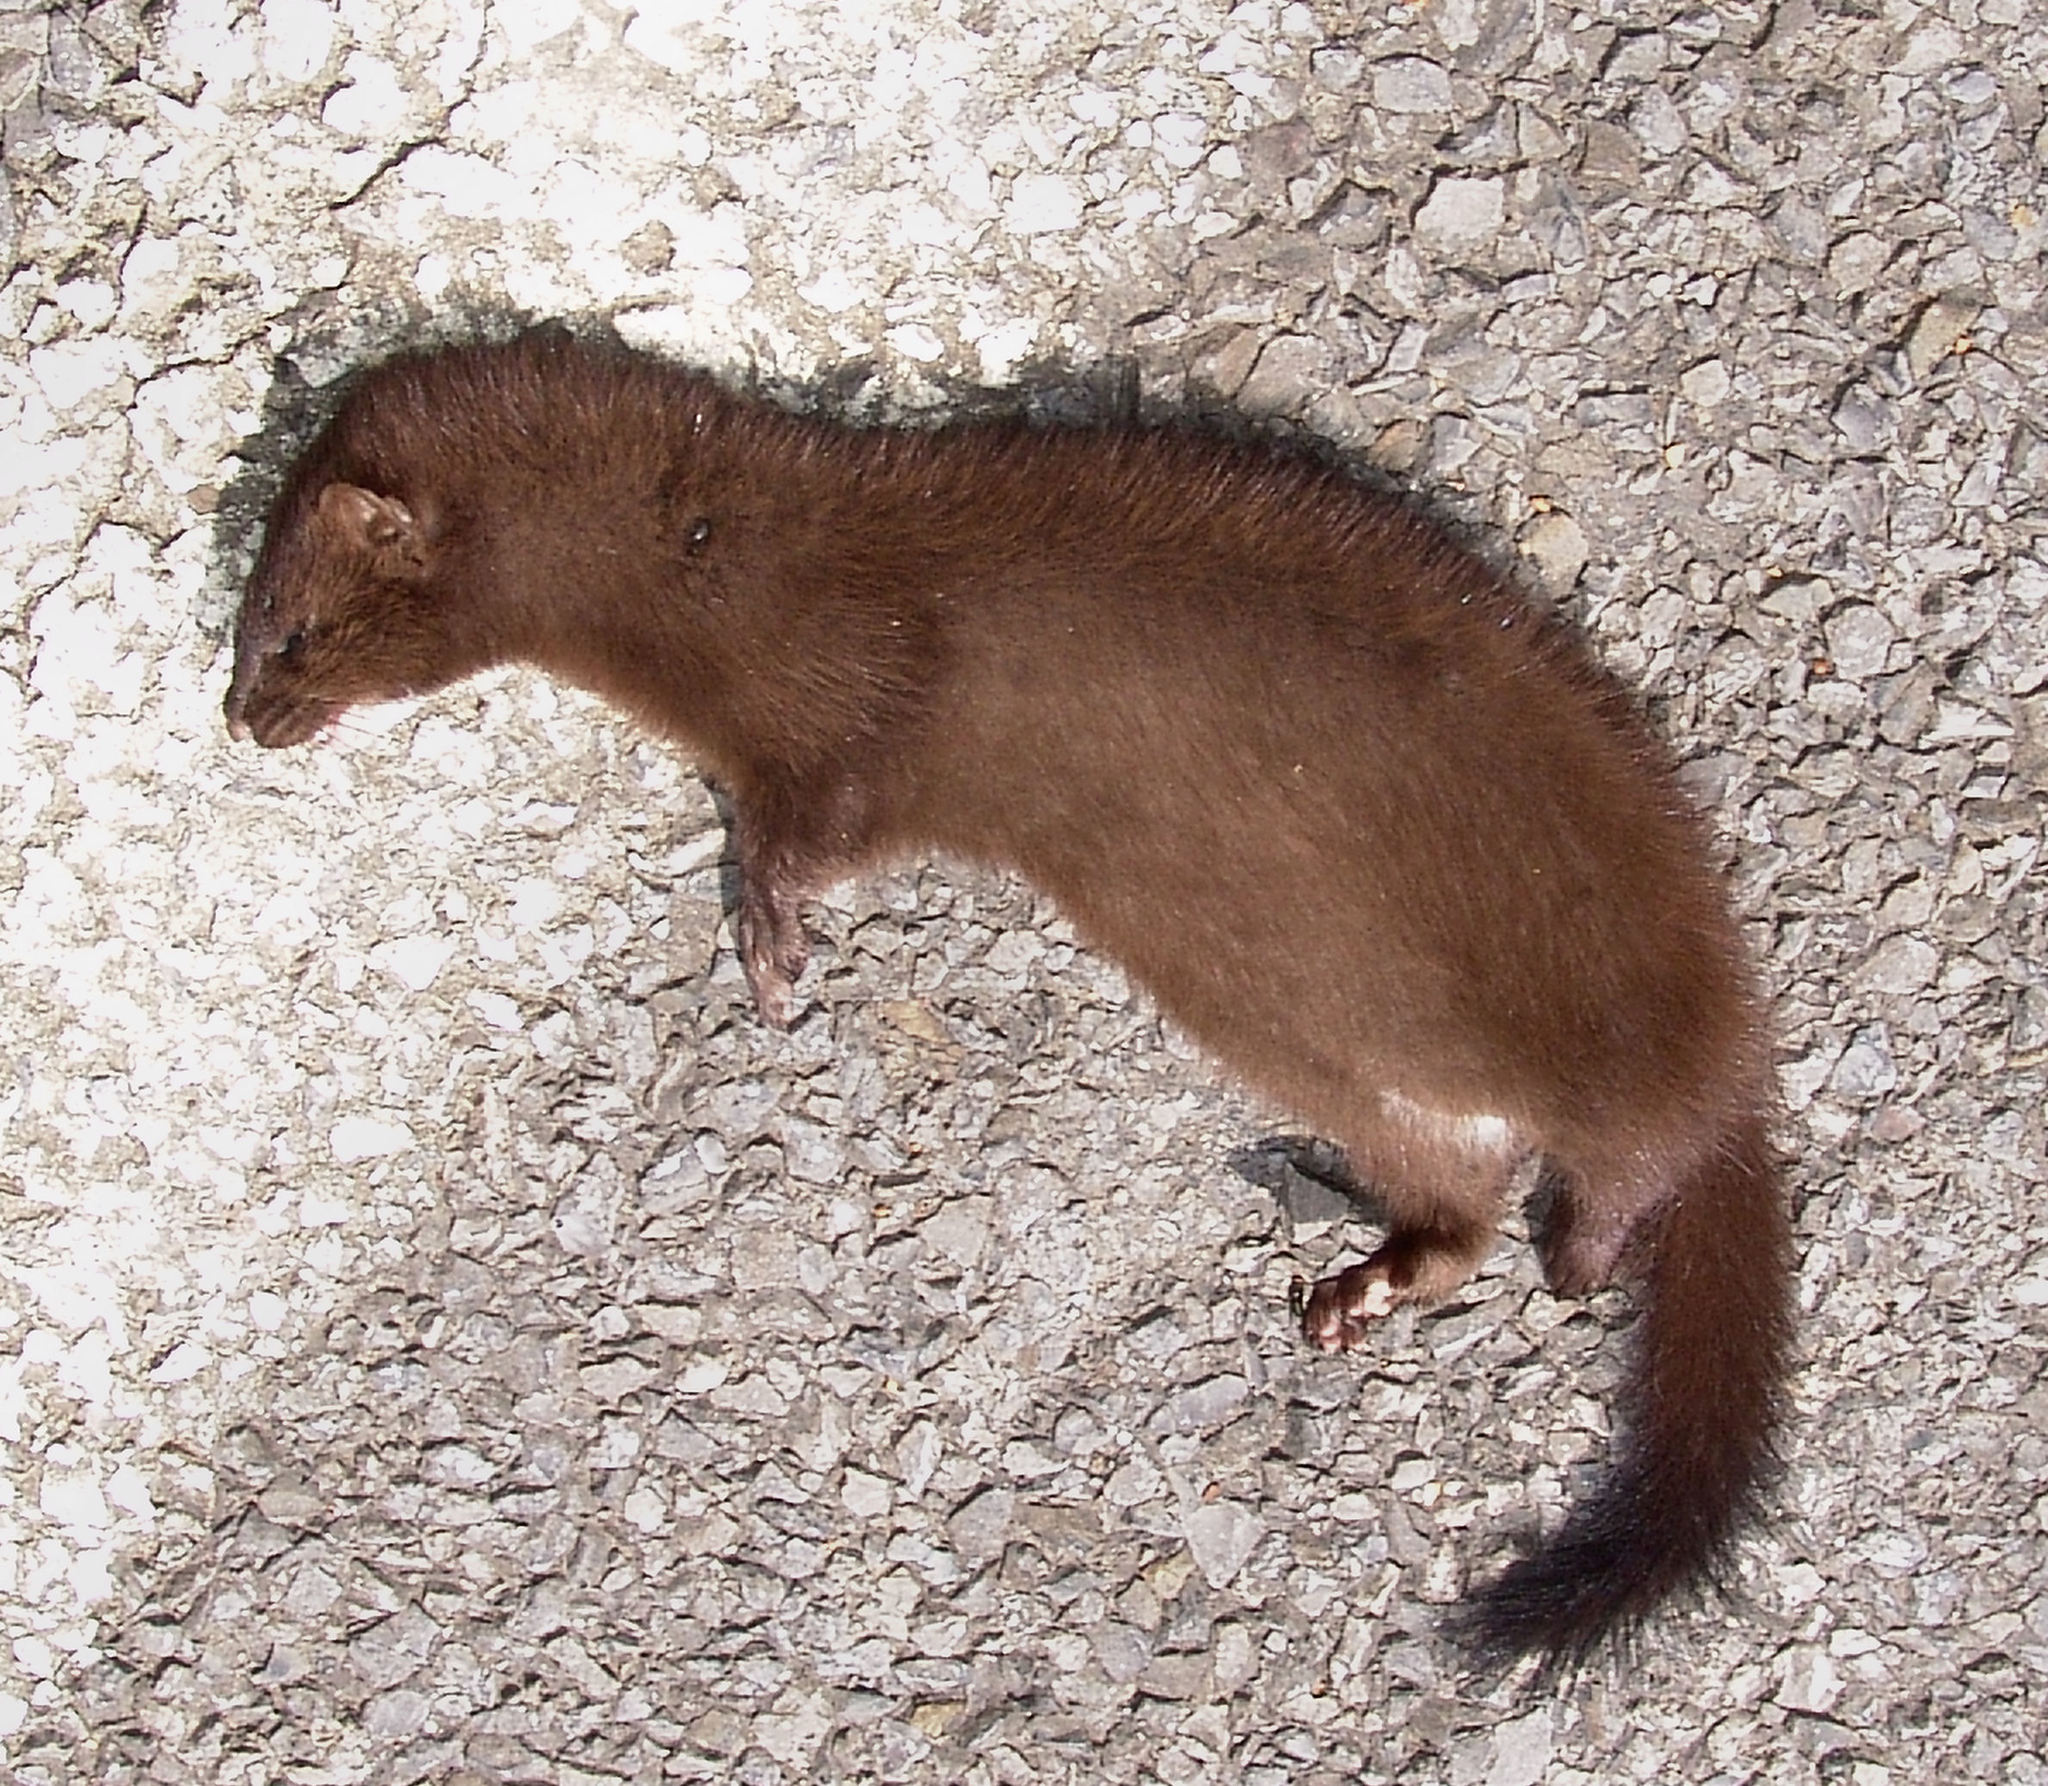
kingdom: Animalia
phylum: Chordata
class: Mammalia
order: Carnivora
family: Mustelidae
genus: Mustela
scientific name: Mustela
